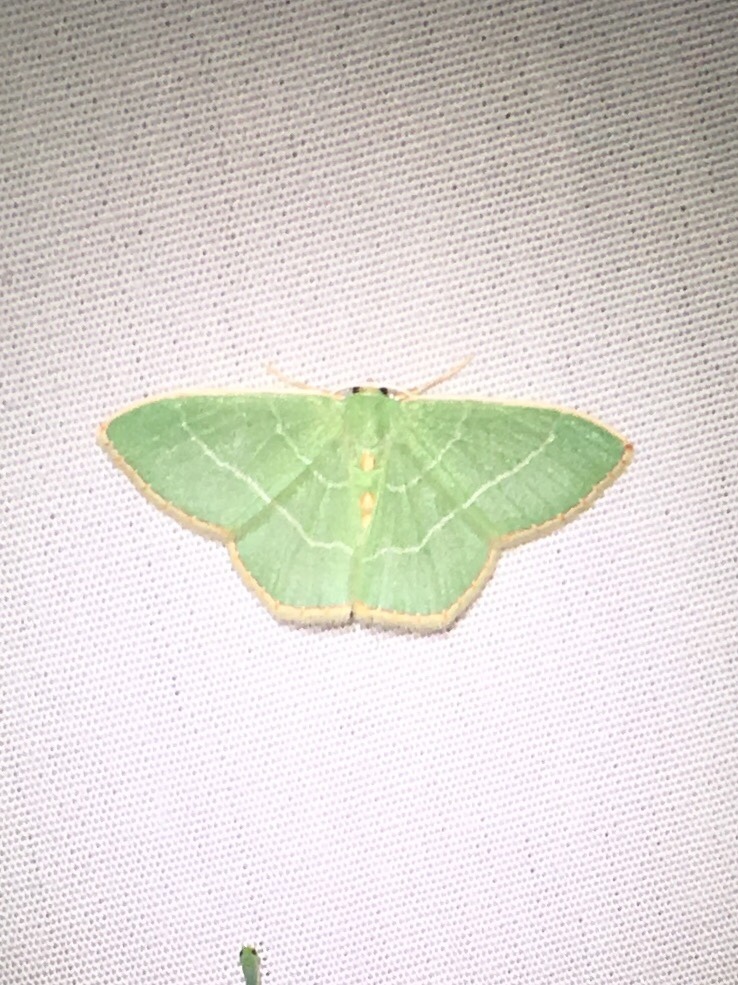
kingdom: Animalia
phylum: Arthropoda
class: Insecta
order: Lepidoptera
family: Geometridae
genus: Nemoria
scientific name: Nemoria bistriaria
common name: Red-fringed emerald
